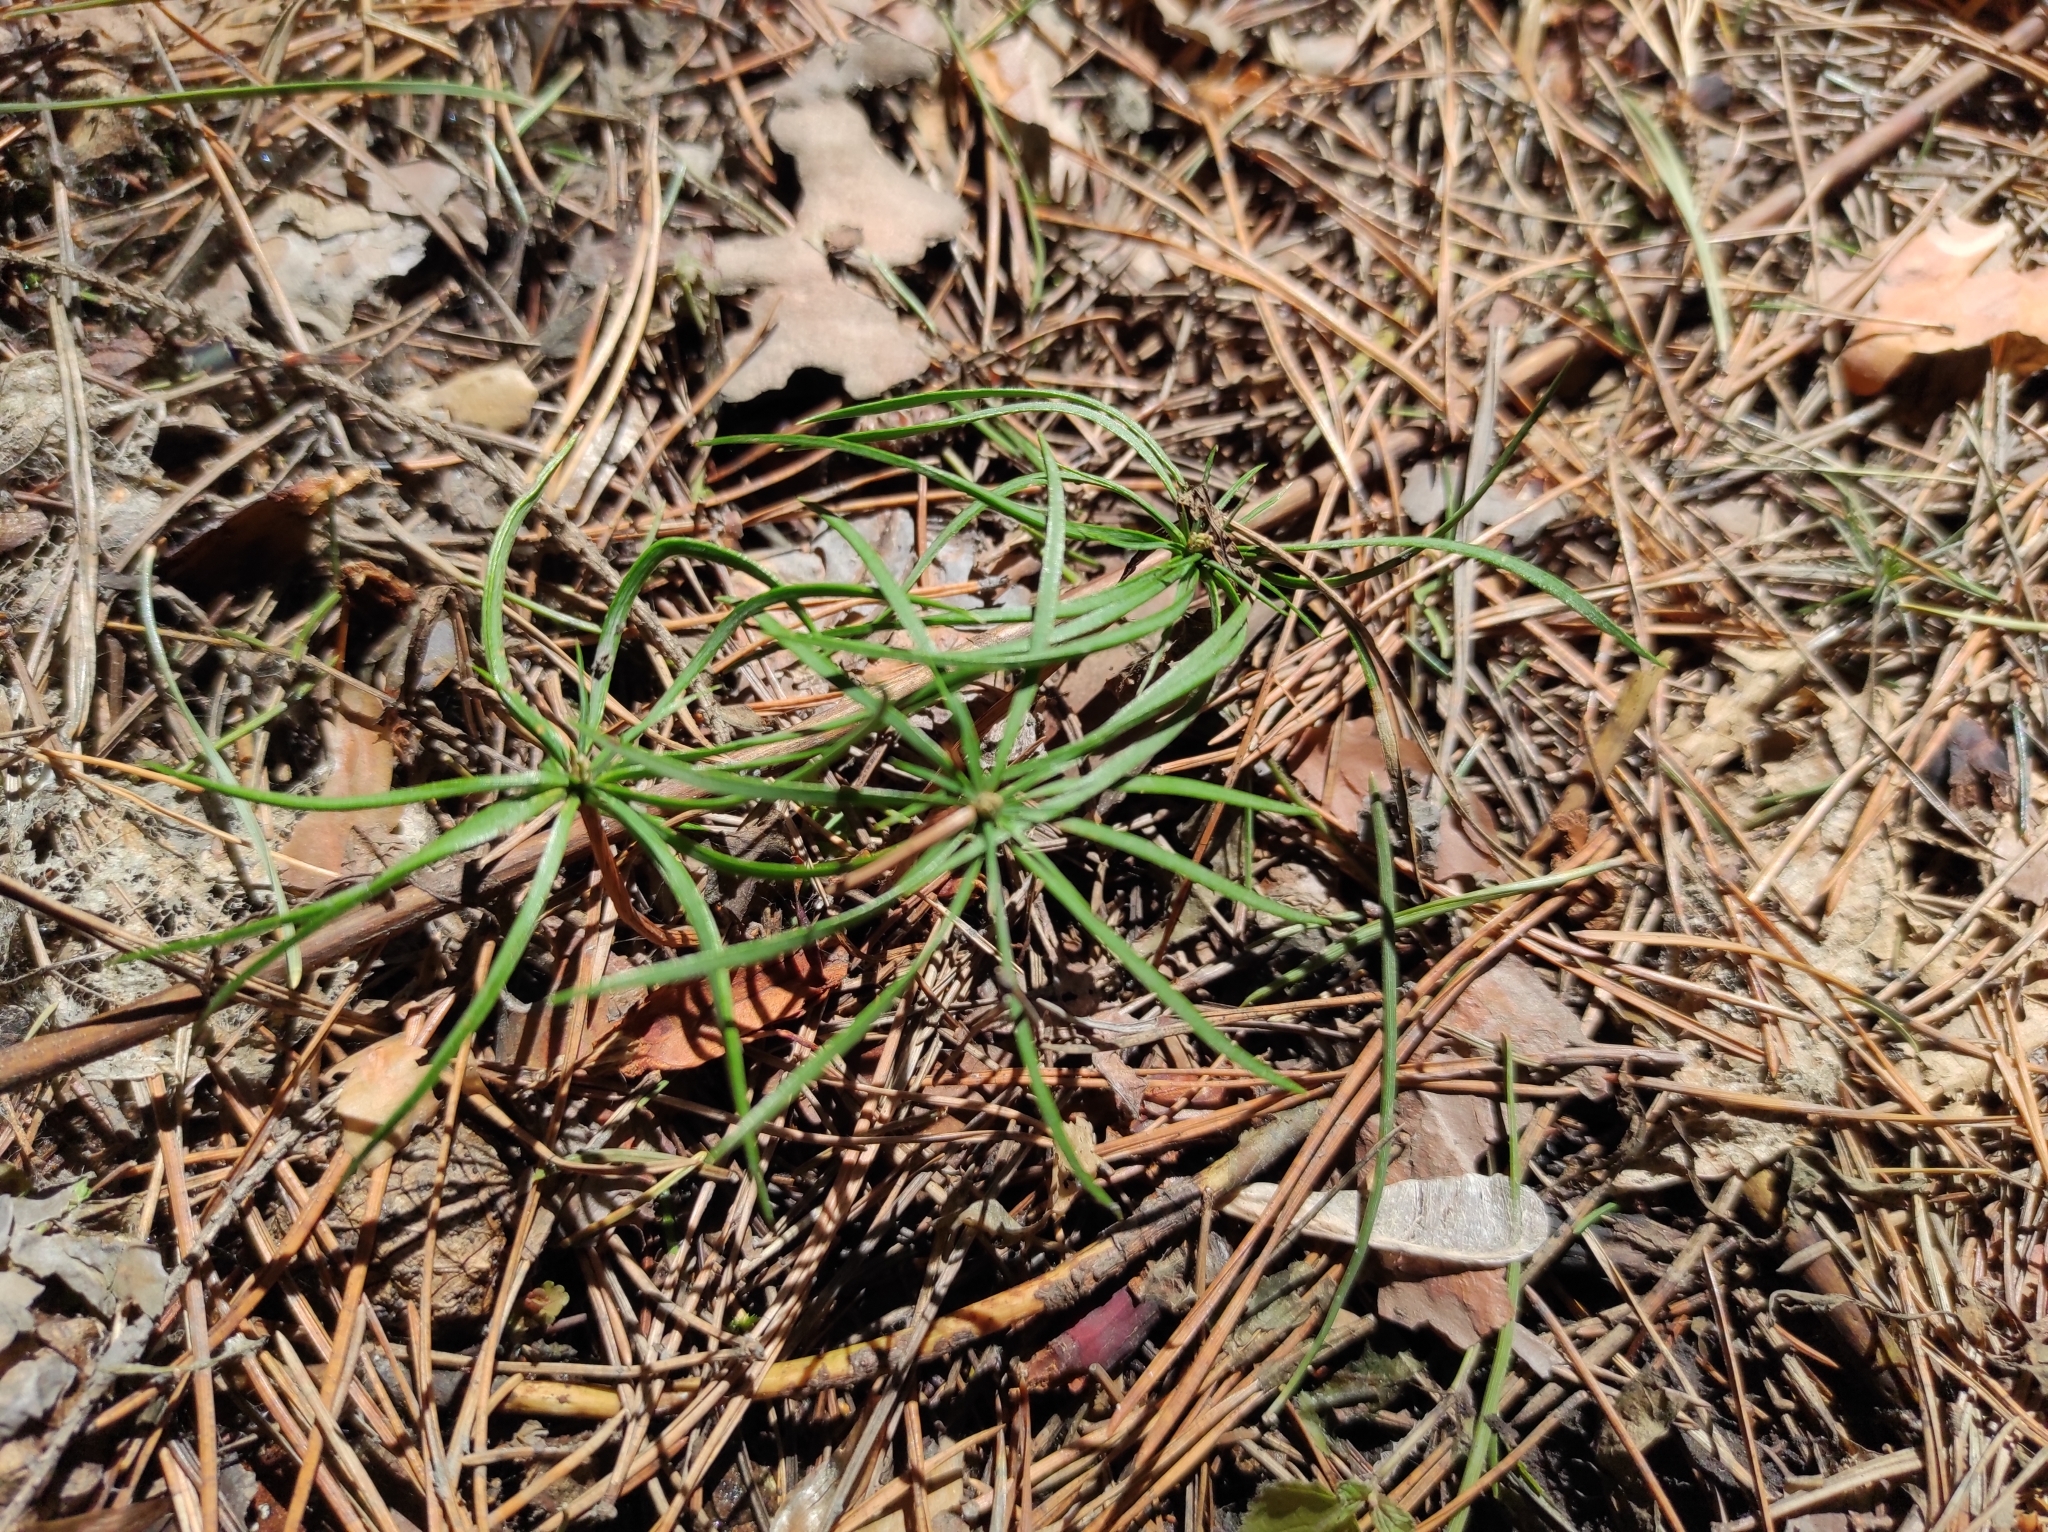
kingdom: Plantae
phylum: Tracheophyta
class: Pinopsida
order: Pinales
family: Pinaceae
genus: Pinus
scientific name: Pinus sibirica
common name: Siberian pine
